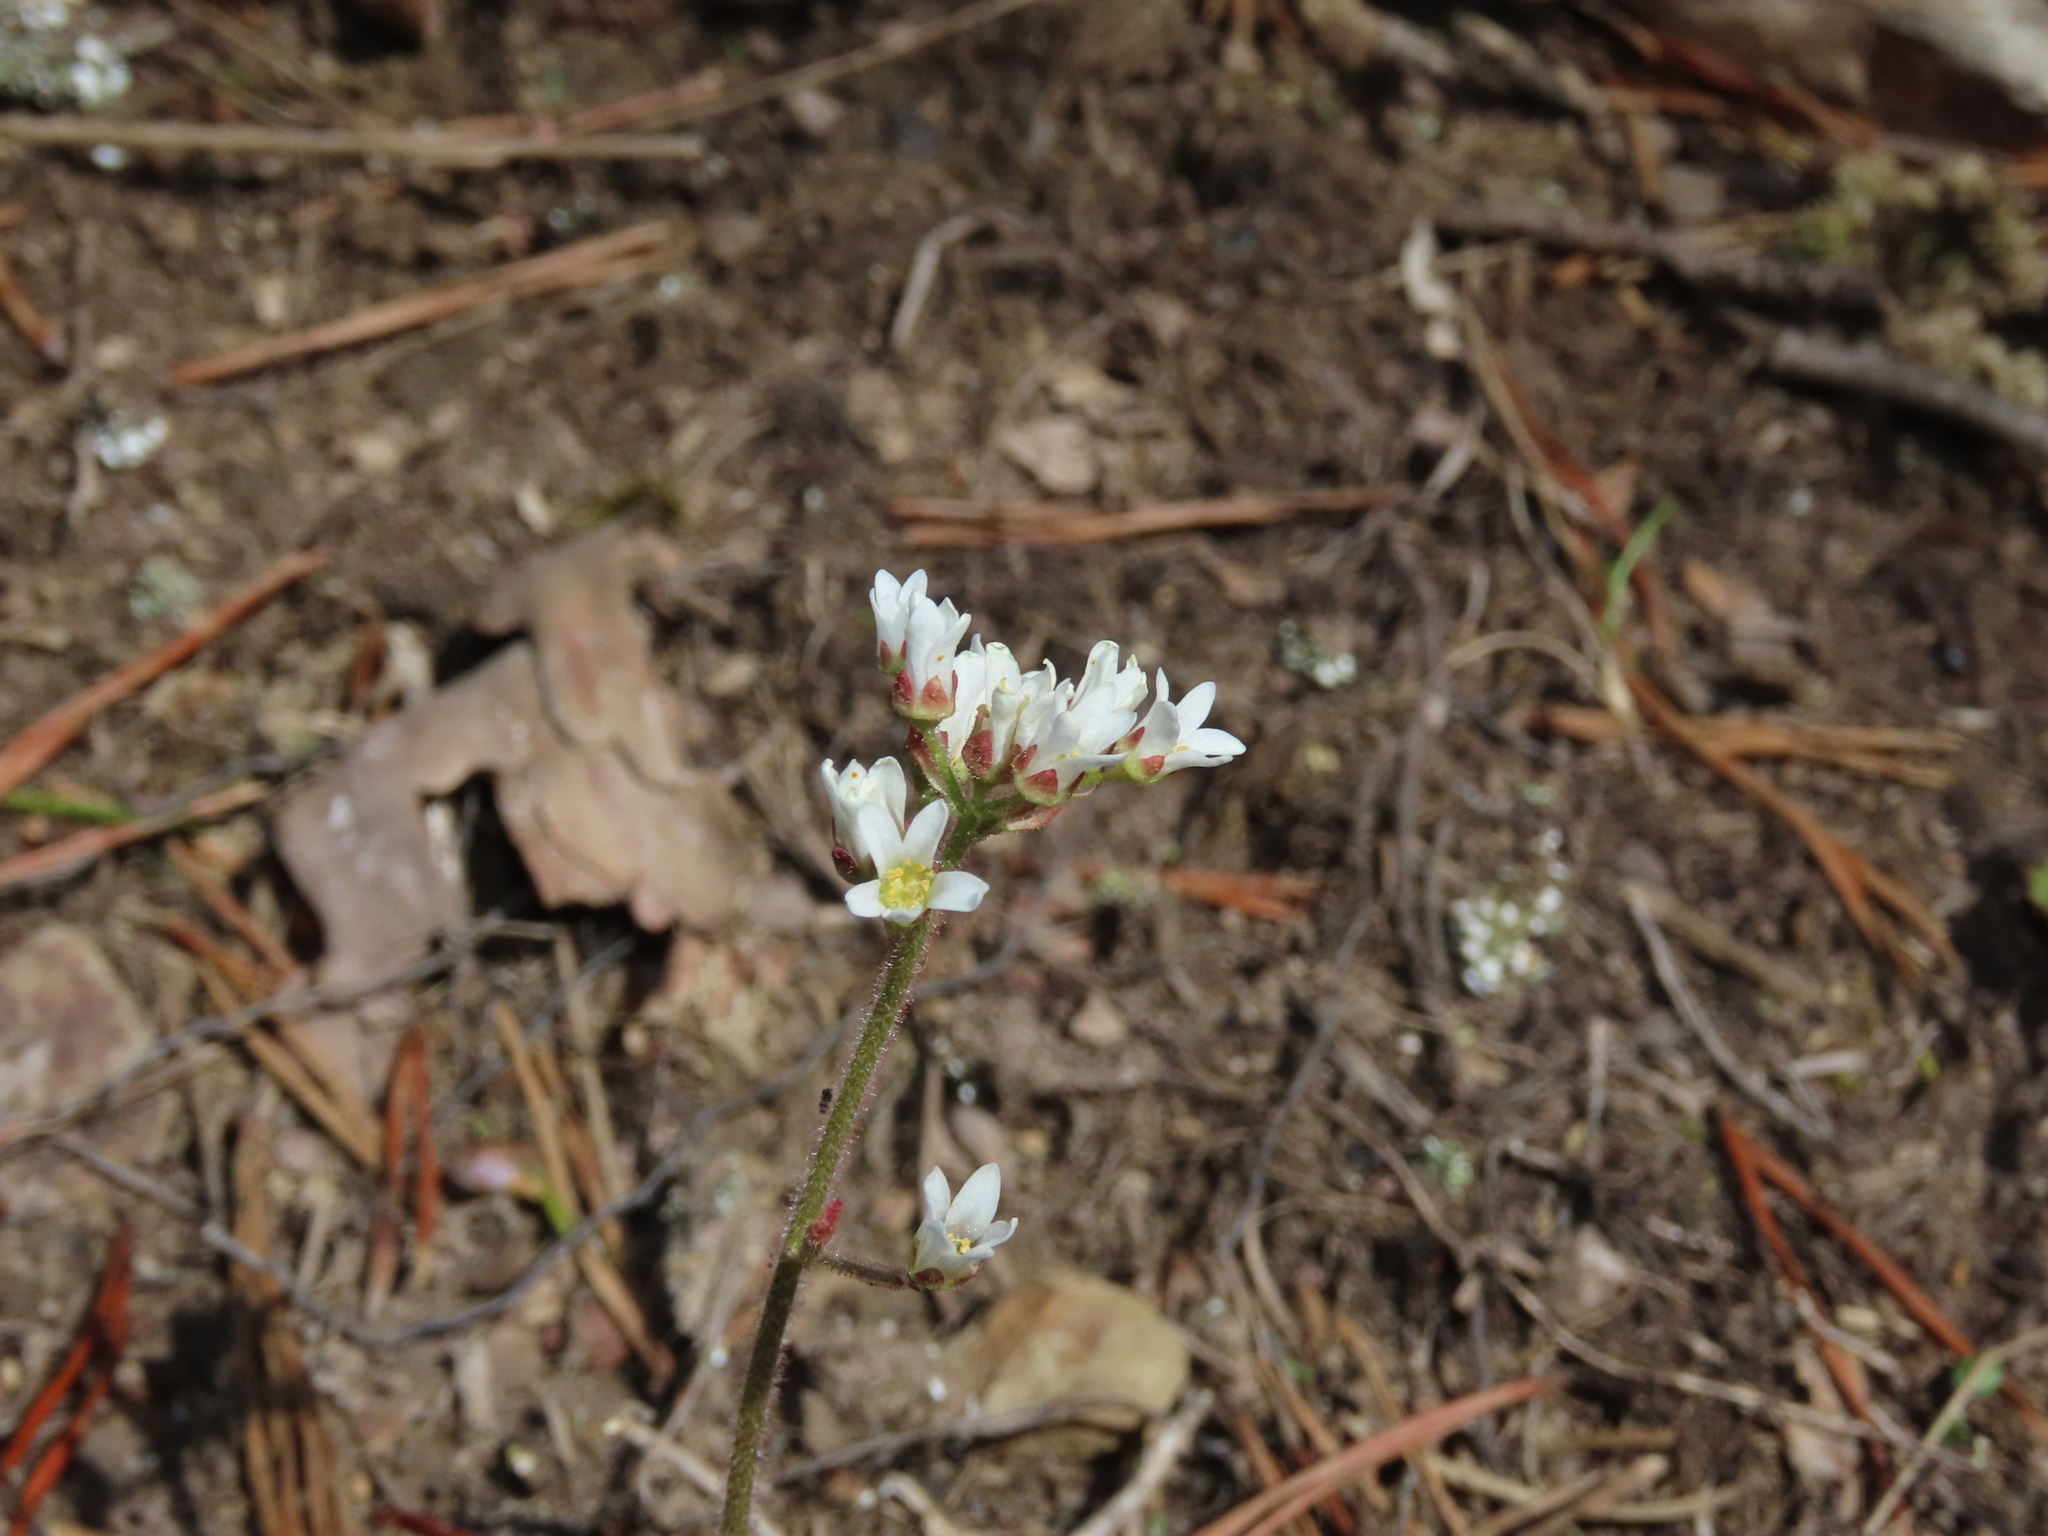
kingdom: Plantae
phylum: Tracheophyta
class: Magnoliopsida
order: Saxifragales
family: Saxifragaceae
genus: Micranthes
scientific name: Micranthes virginiensis
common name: Early saxifrage
